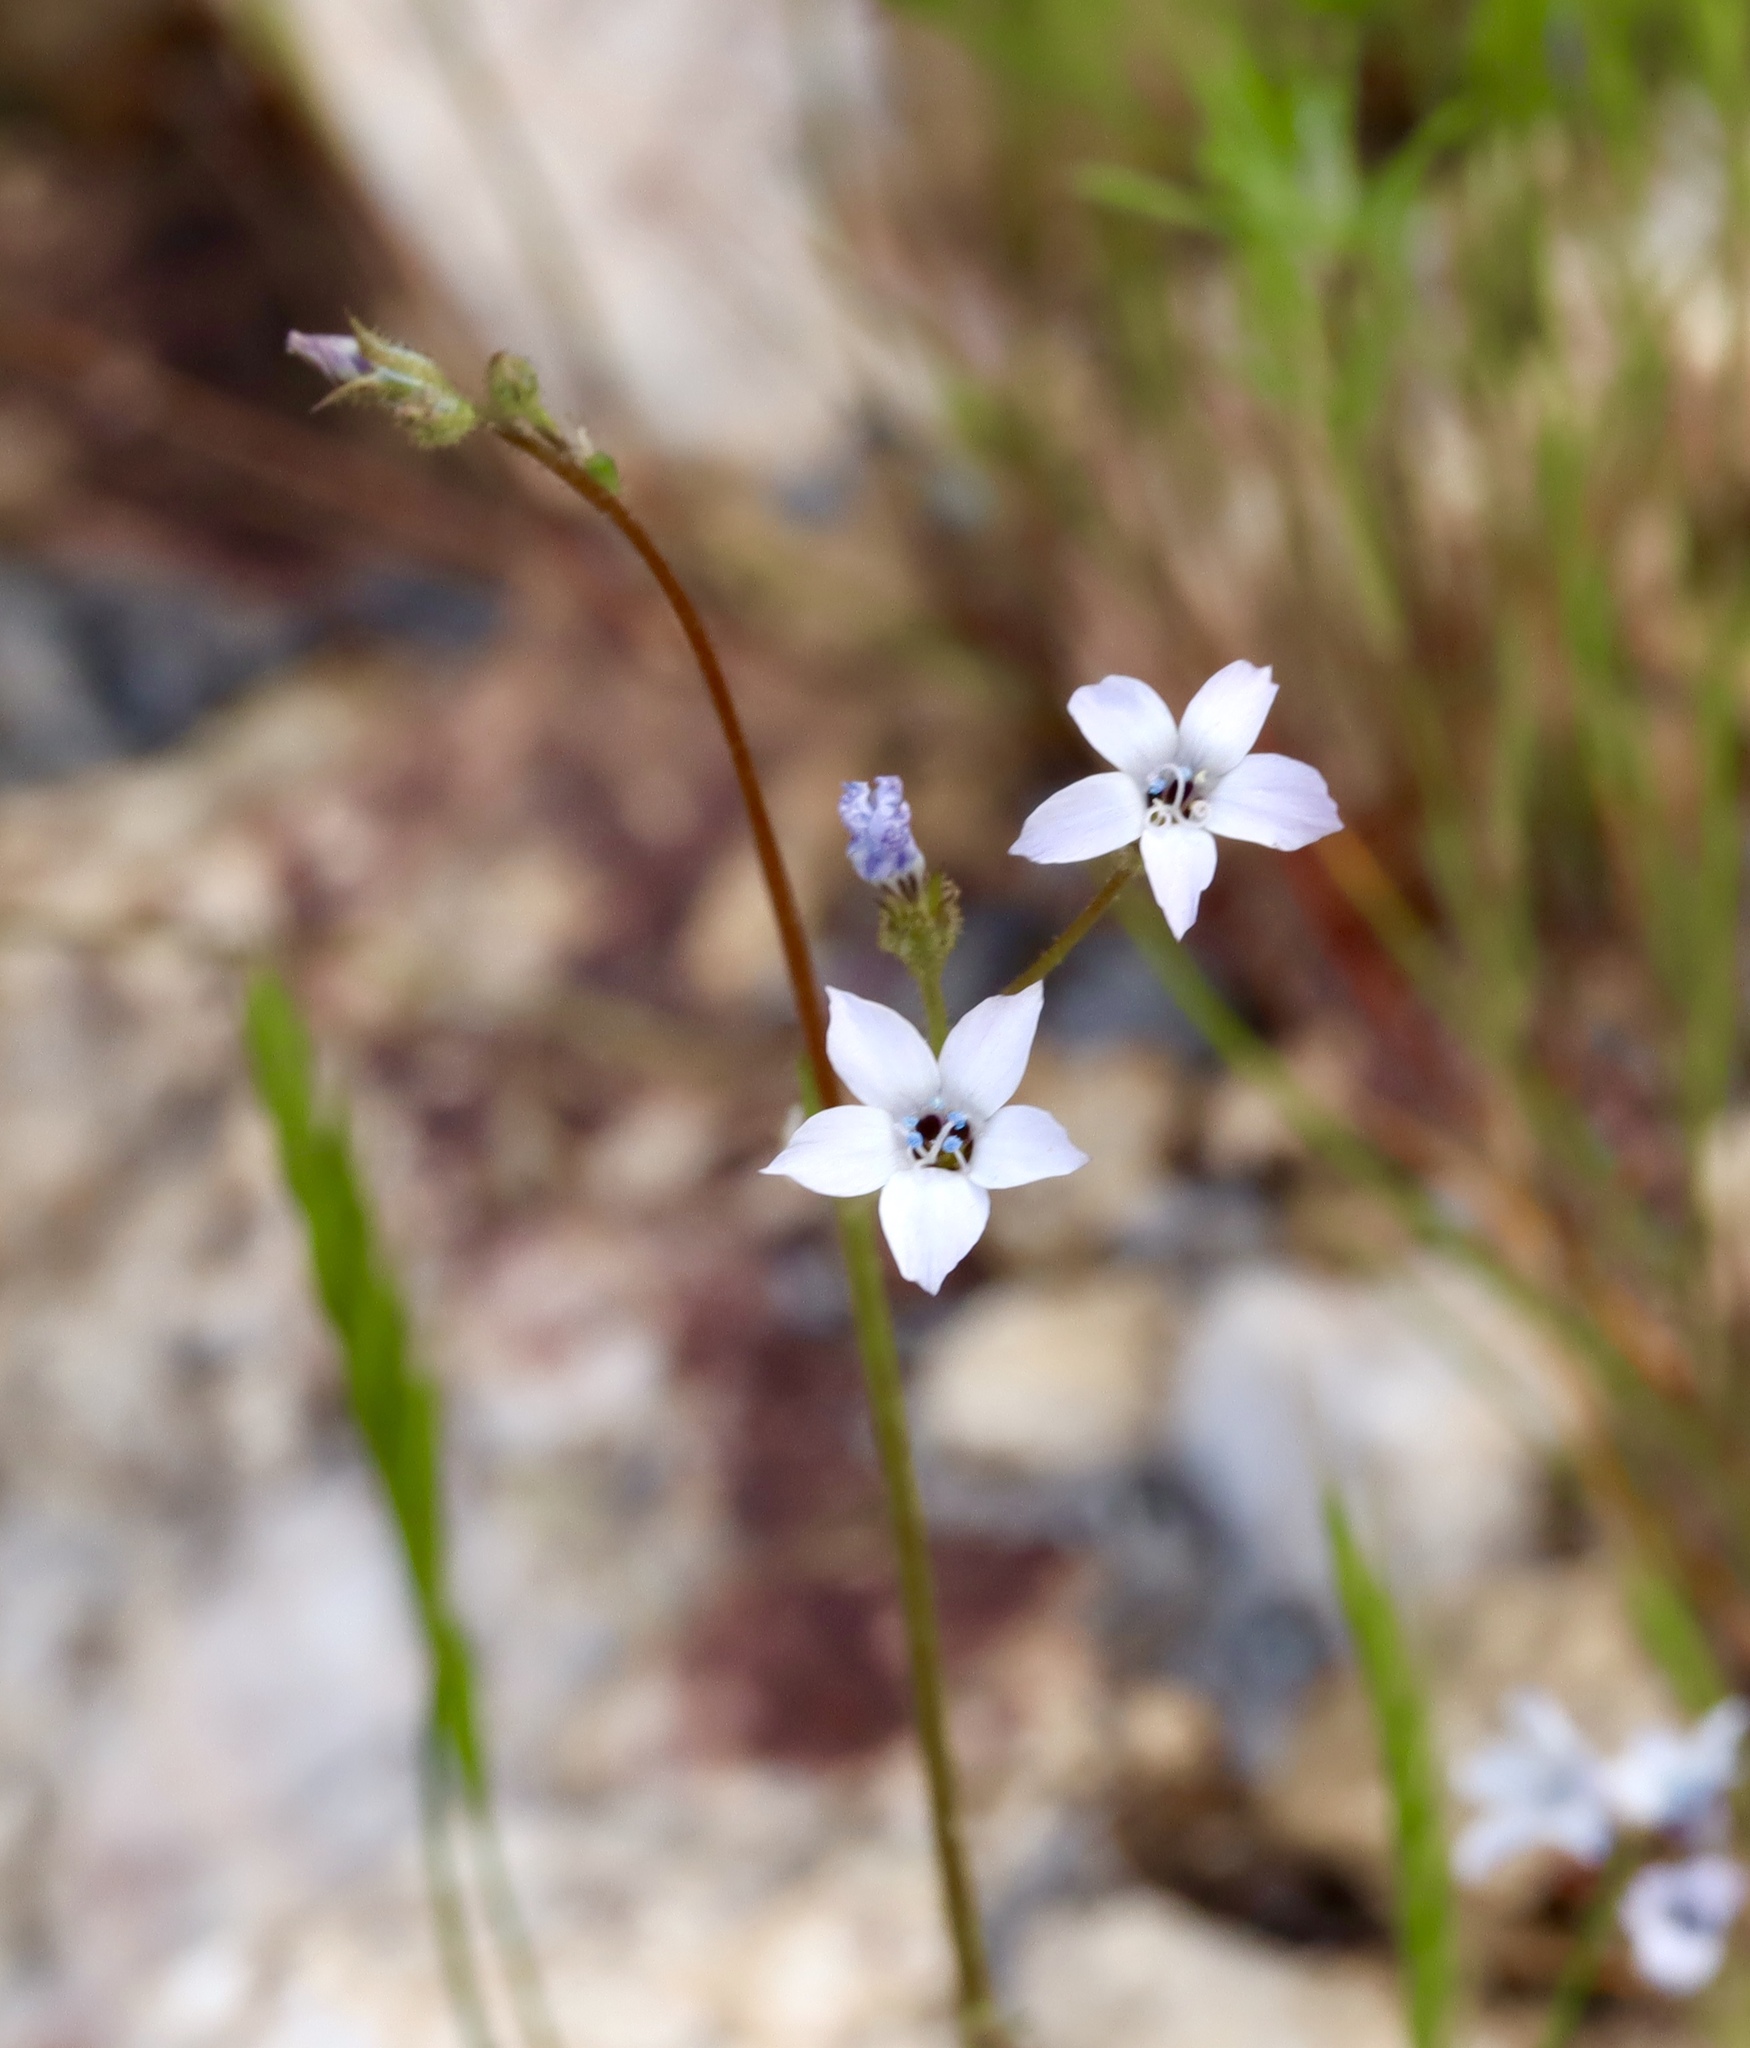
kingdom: Plantae
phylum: Tracheophyta
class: Magnoliopsida
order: Ericales
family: Polemoniaceae
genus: Gilia
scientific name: Gilia stellata
